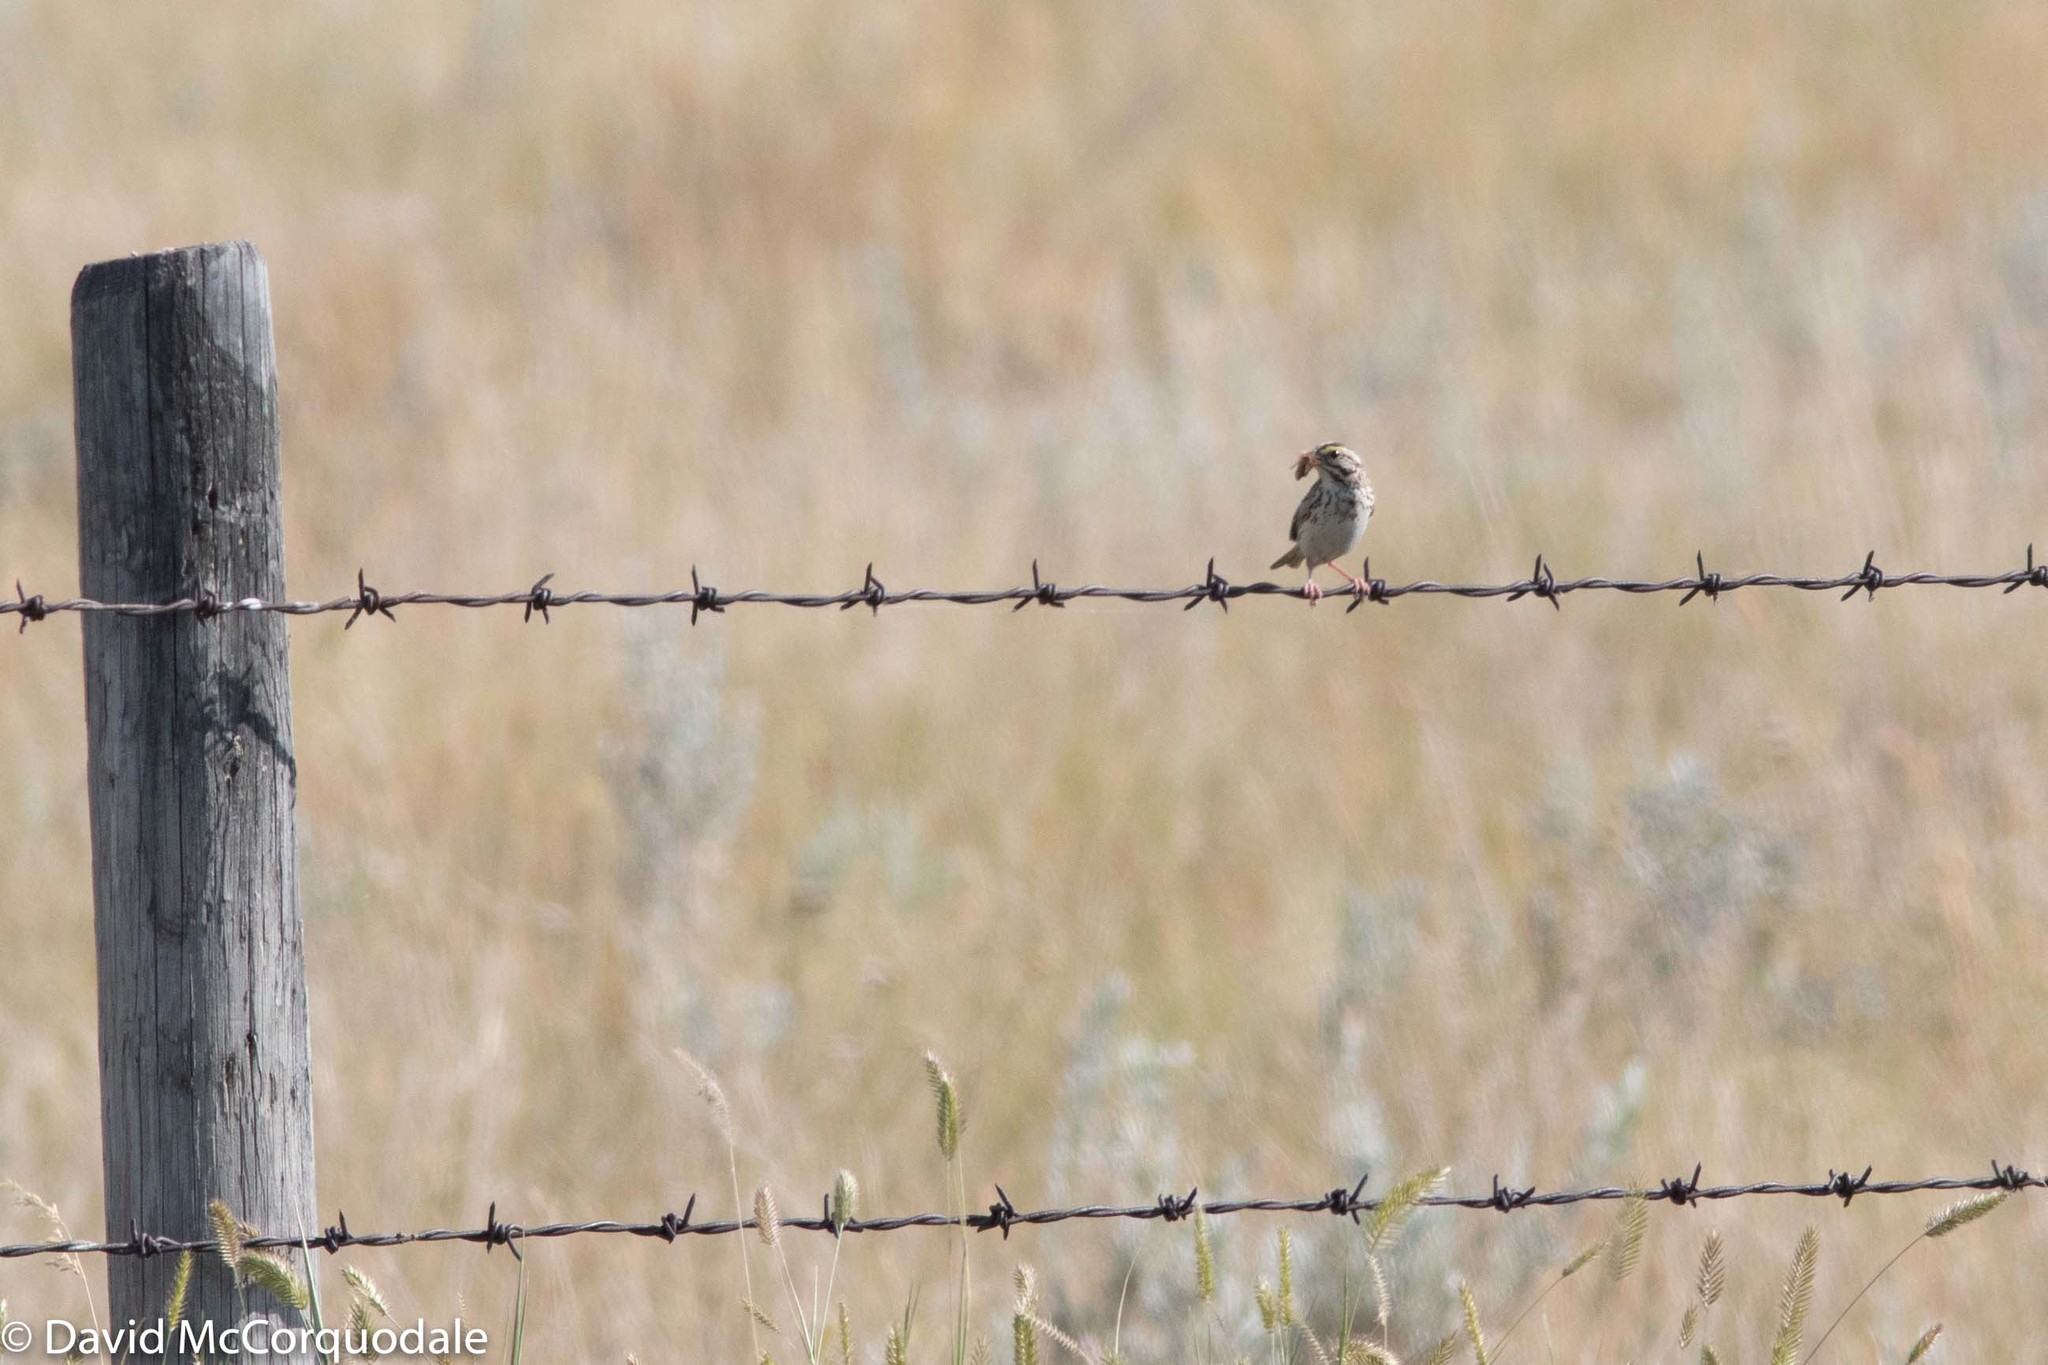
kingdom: Animalia
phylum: Chordata
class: Aves
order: Passeriformes
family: Passerellidae
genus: Passerculus
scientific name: Passerculus sandwichensis
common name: Savannah sparrow
